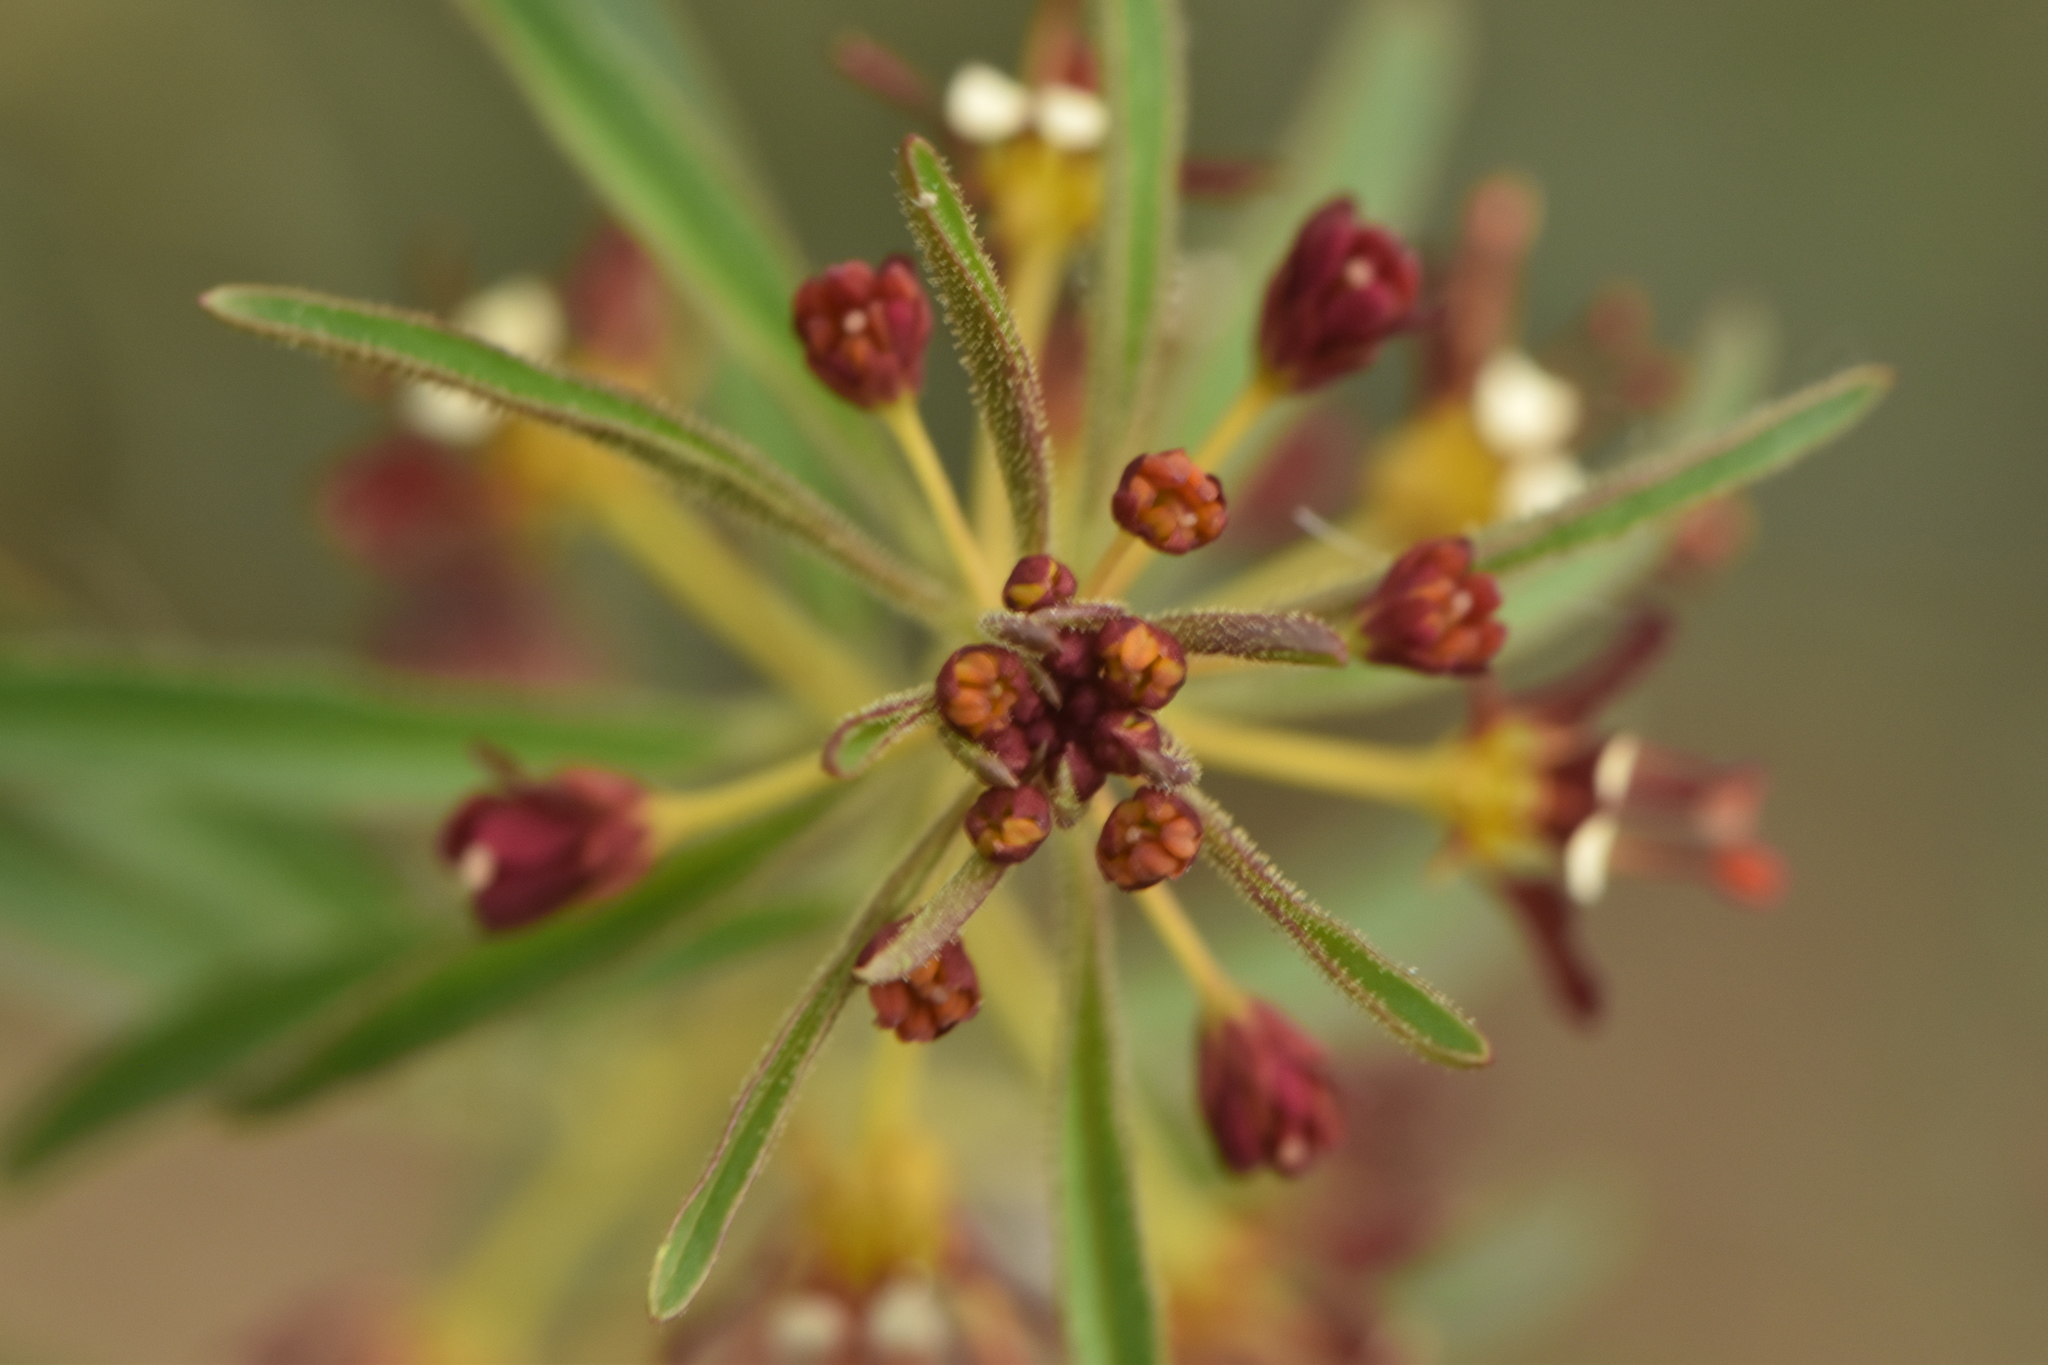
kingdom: Plantae
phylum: Tracheophyta
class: Magnoliopsida
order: Brassicales
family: Cleomaceae
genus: Cleome
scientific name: Cleome violacea
